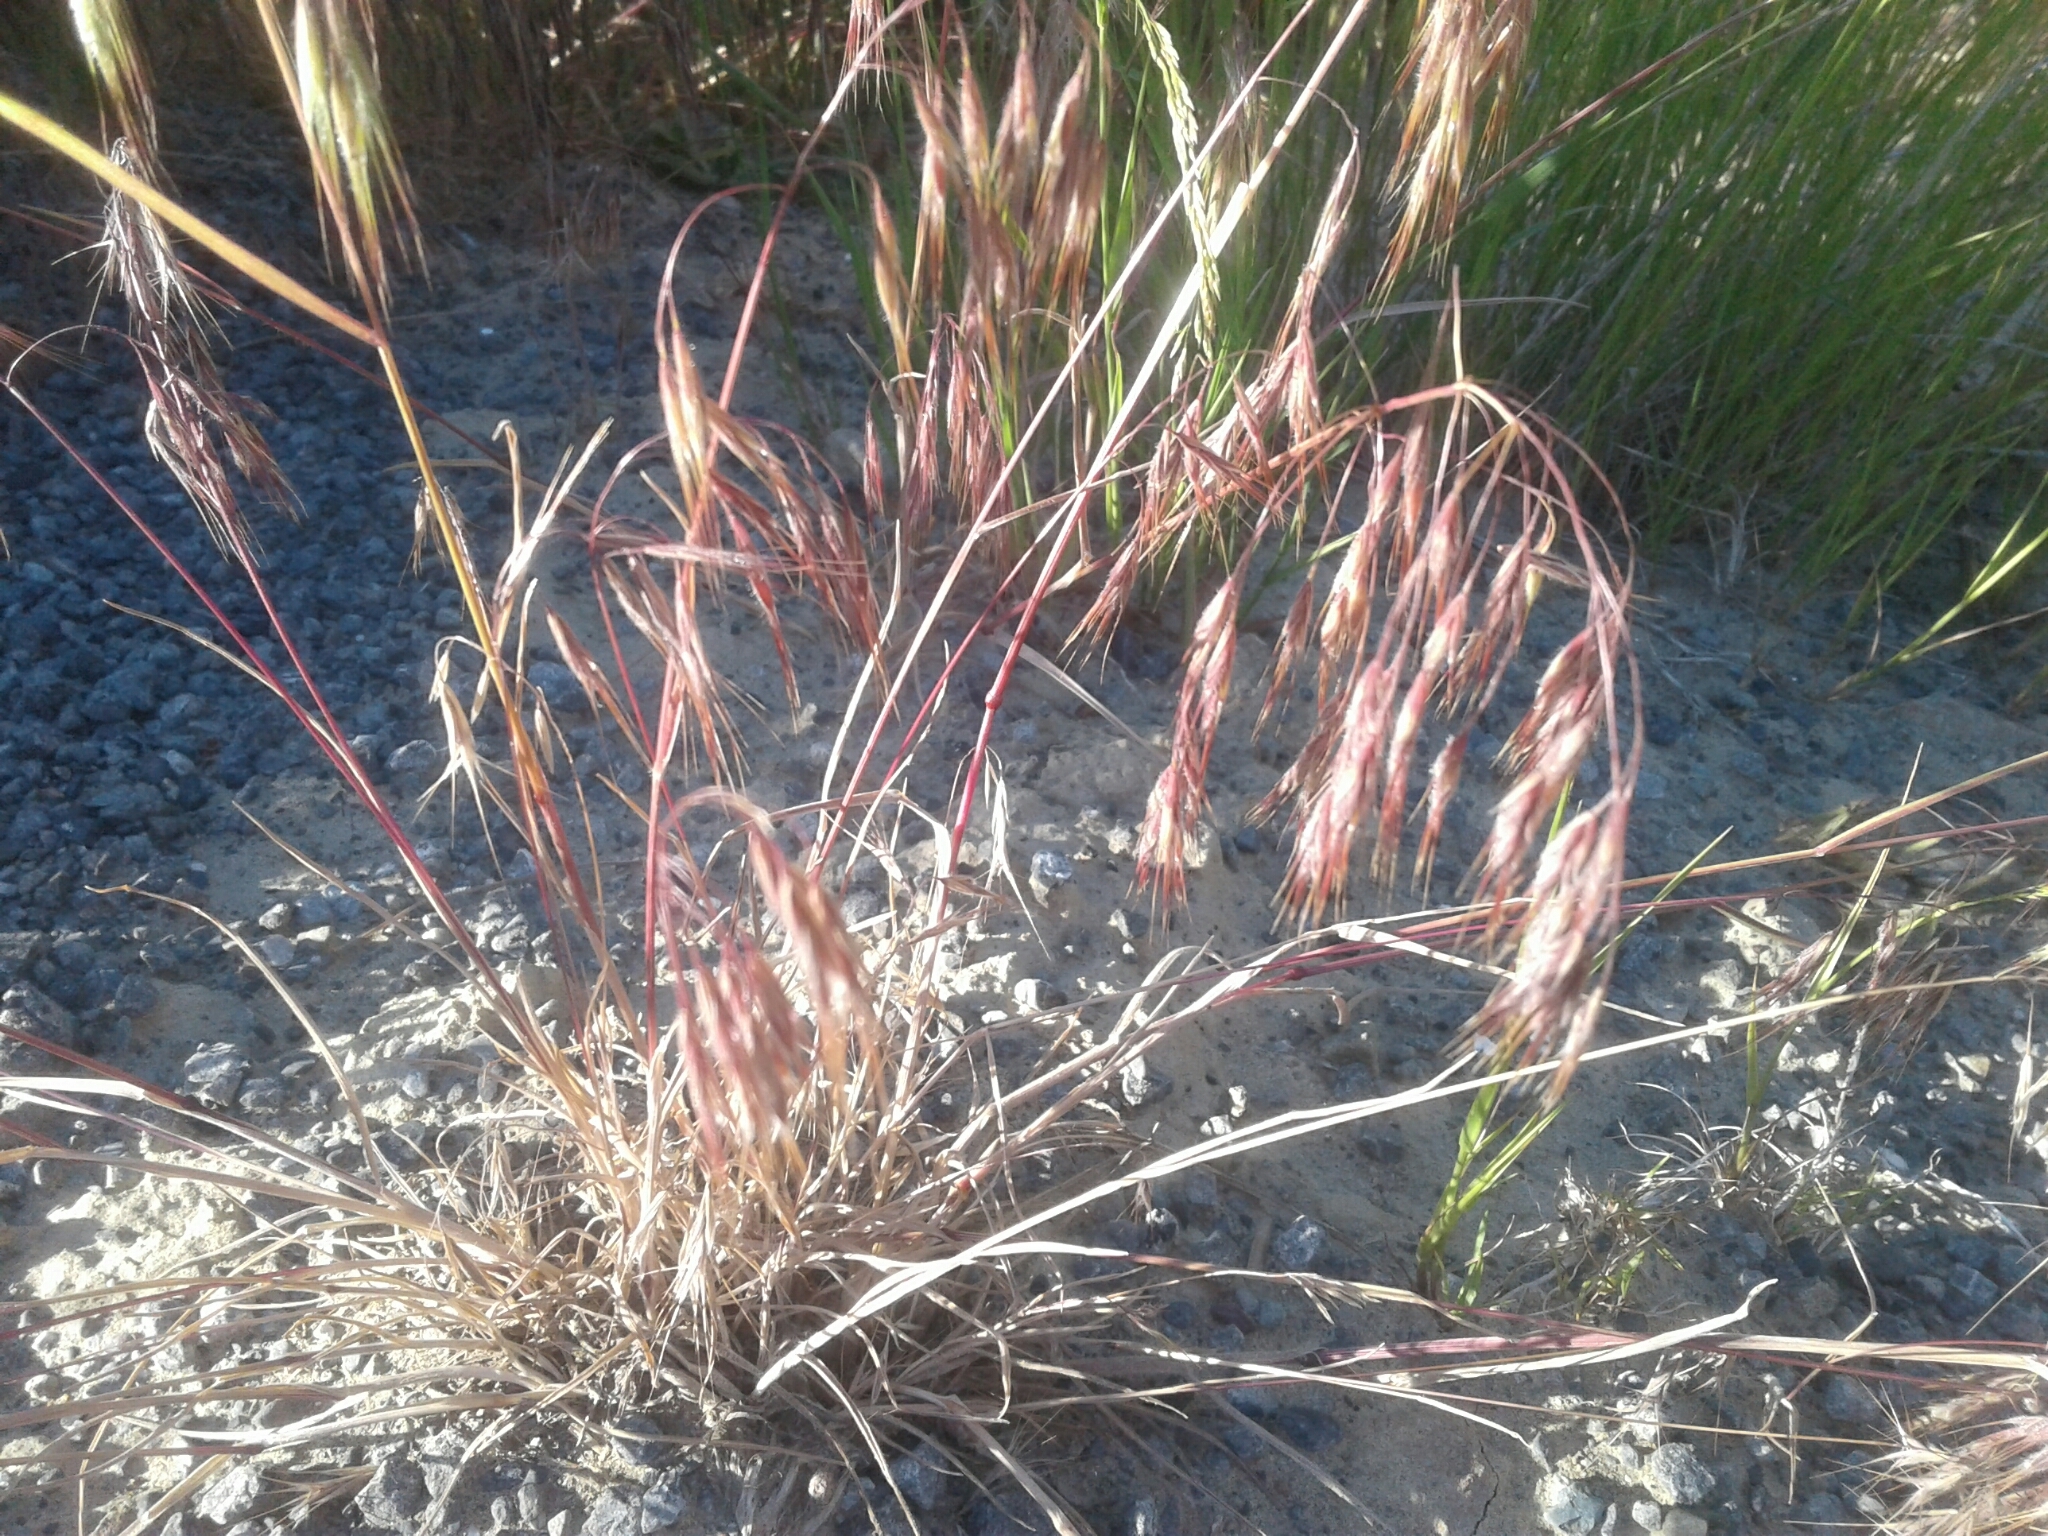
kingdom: Plantae
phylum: Tracheophyta
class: Liliopsida
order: Poales
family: Poaceae
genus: Bromus
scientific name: Bromus tectorum
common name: Cheatgrass
